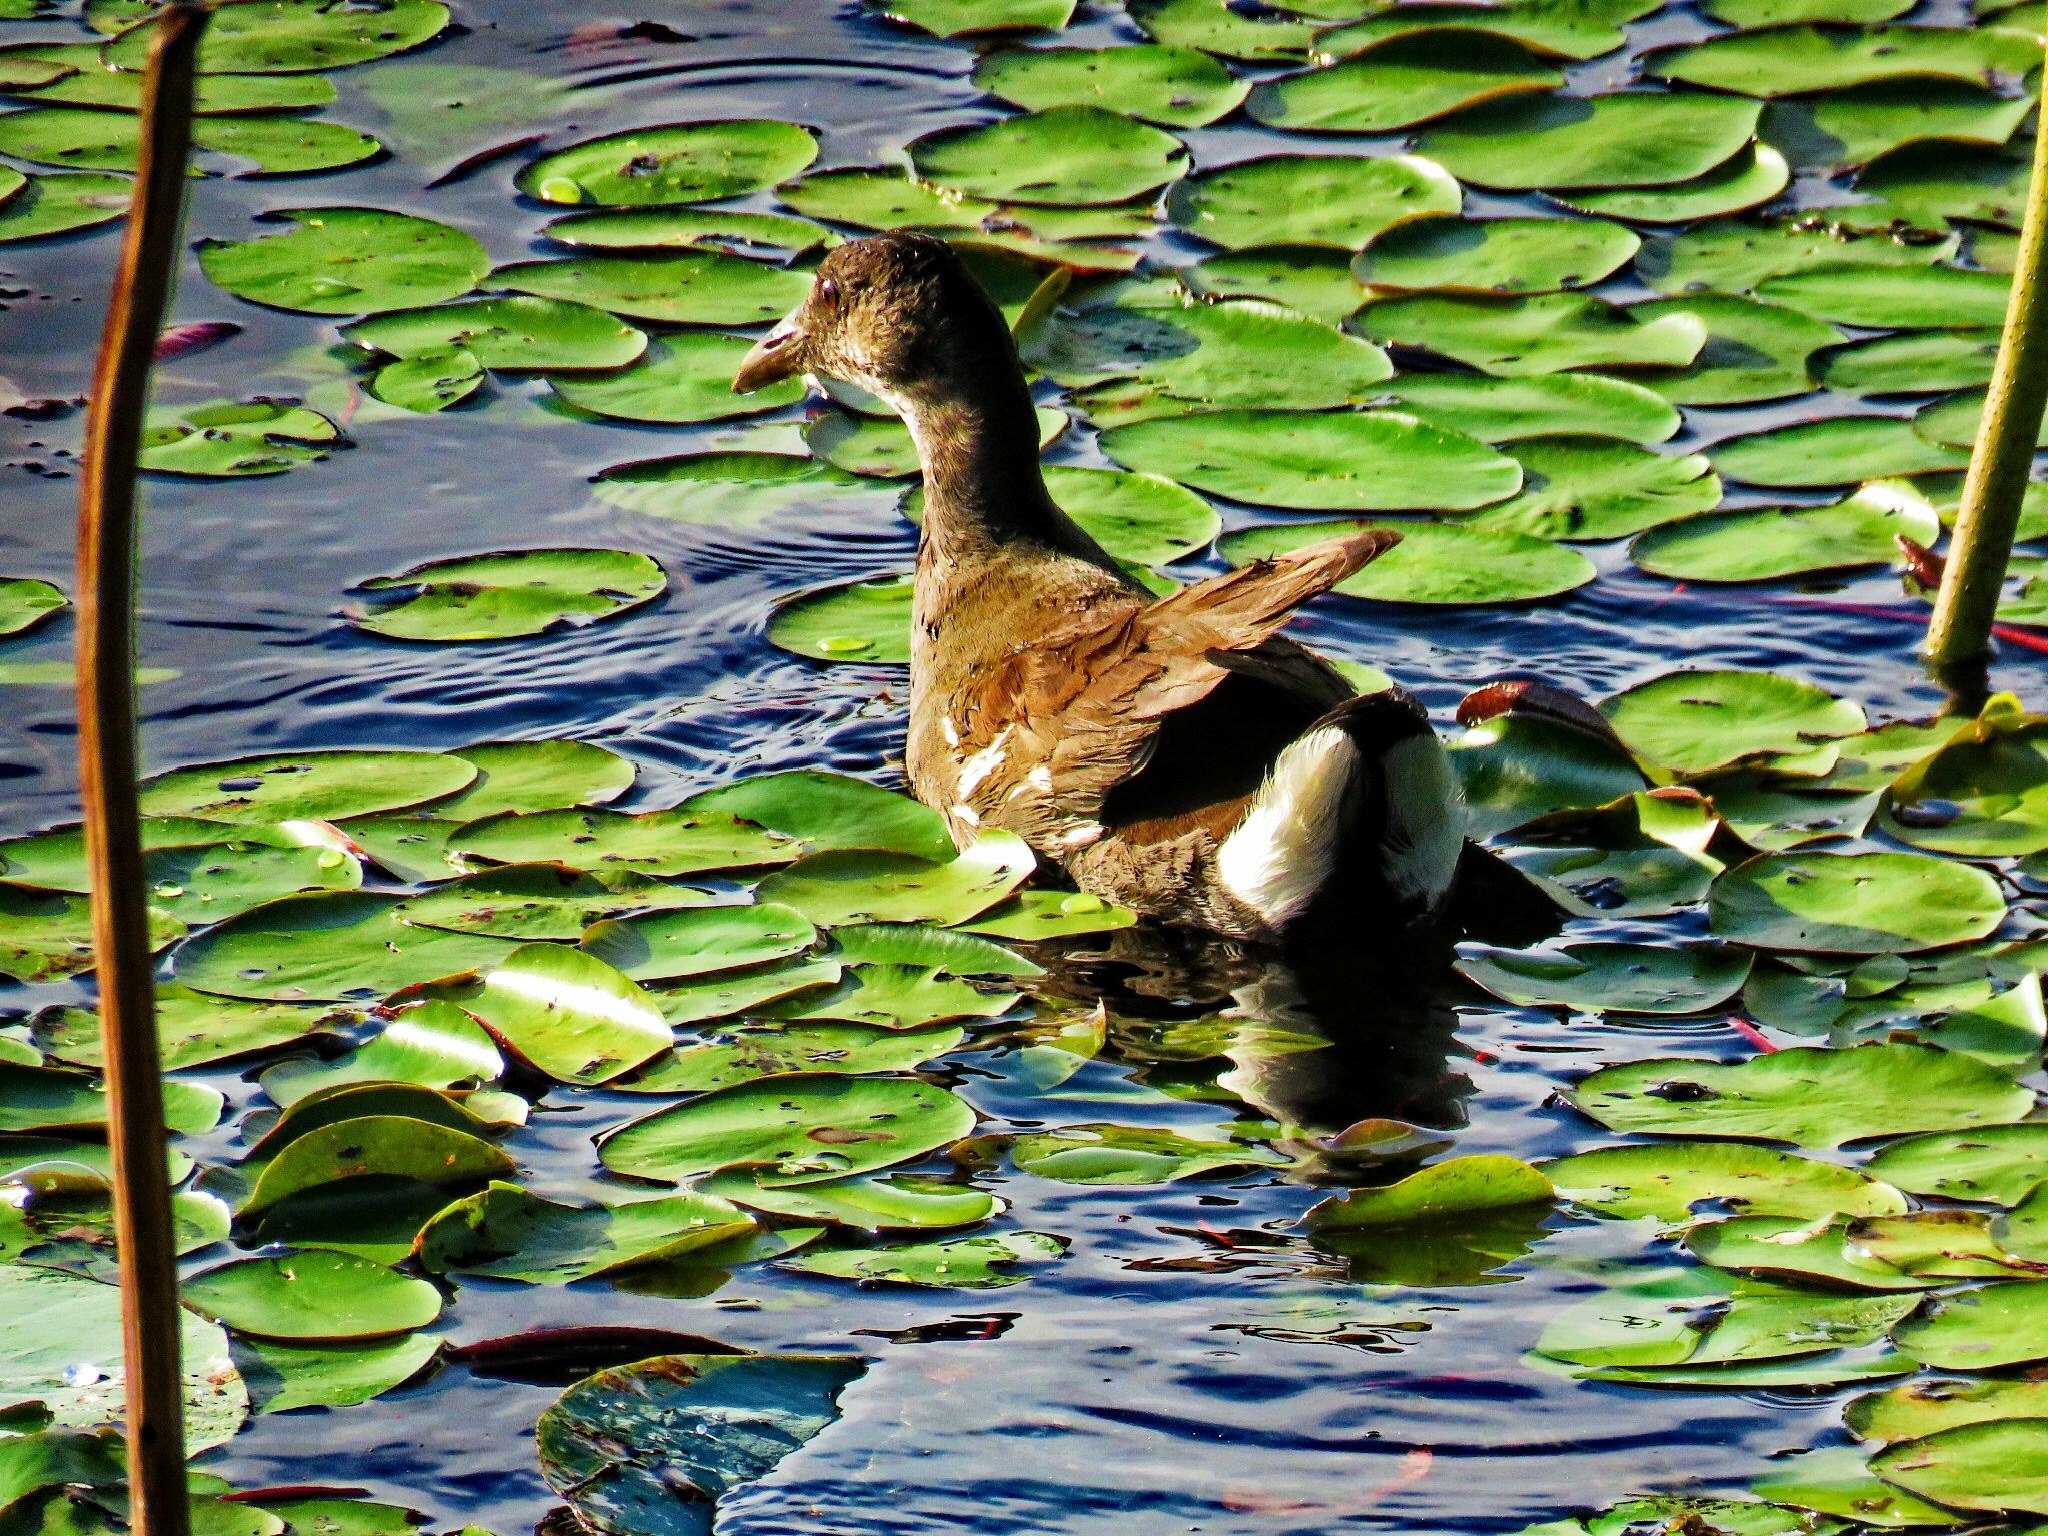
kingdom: Animalia
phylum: Chordata
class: Aves
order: Gruiformes
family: Rallidae
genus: Gallinula
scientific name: Gallinula chloropus
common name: Common moorhen
